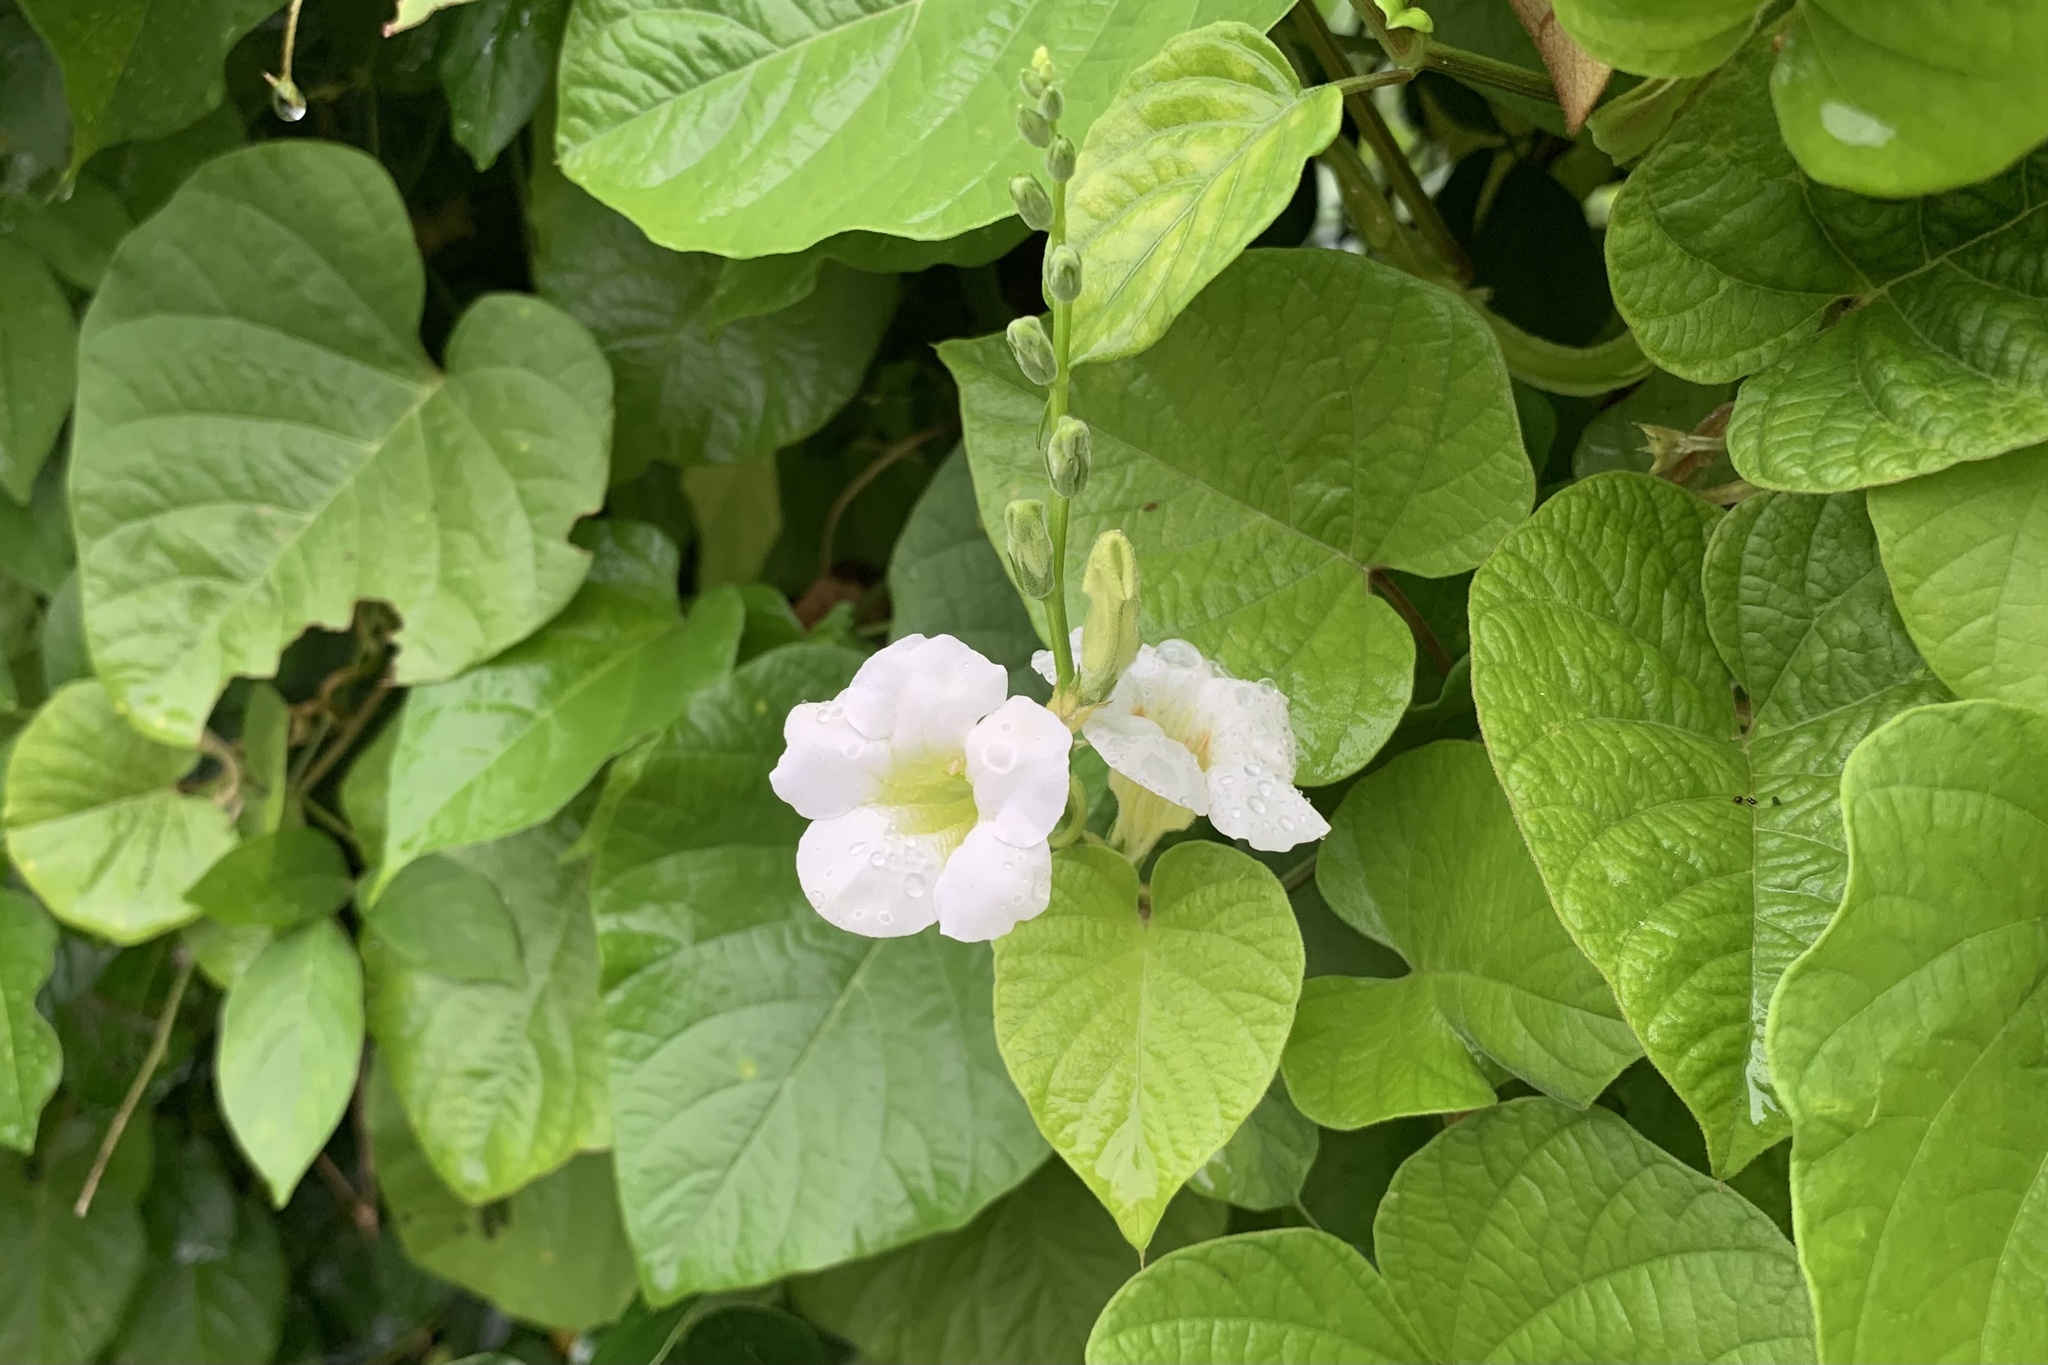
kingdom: Plantae
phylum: Tracheophyta
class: Magnoliopsida
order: Lamiales
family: Acanthaceae
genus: Asystasia
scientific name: Asystasia gangetica
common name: Chinese violet
